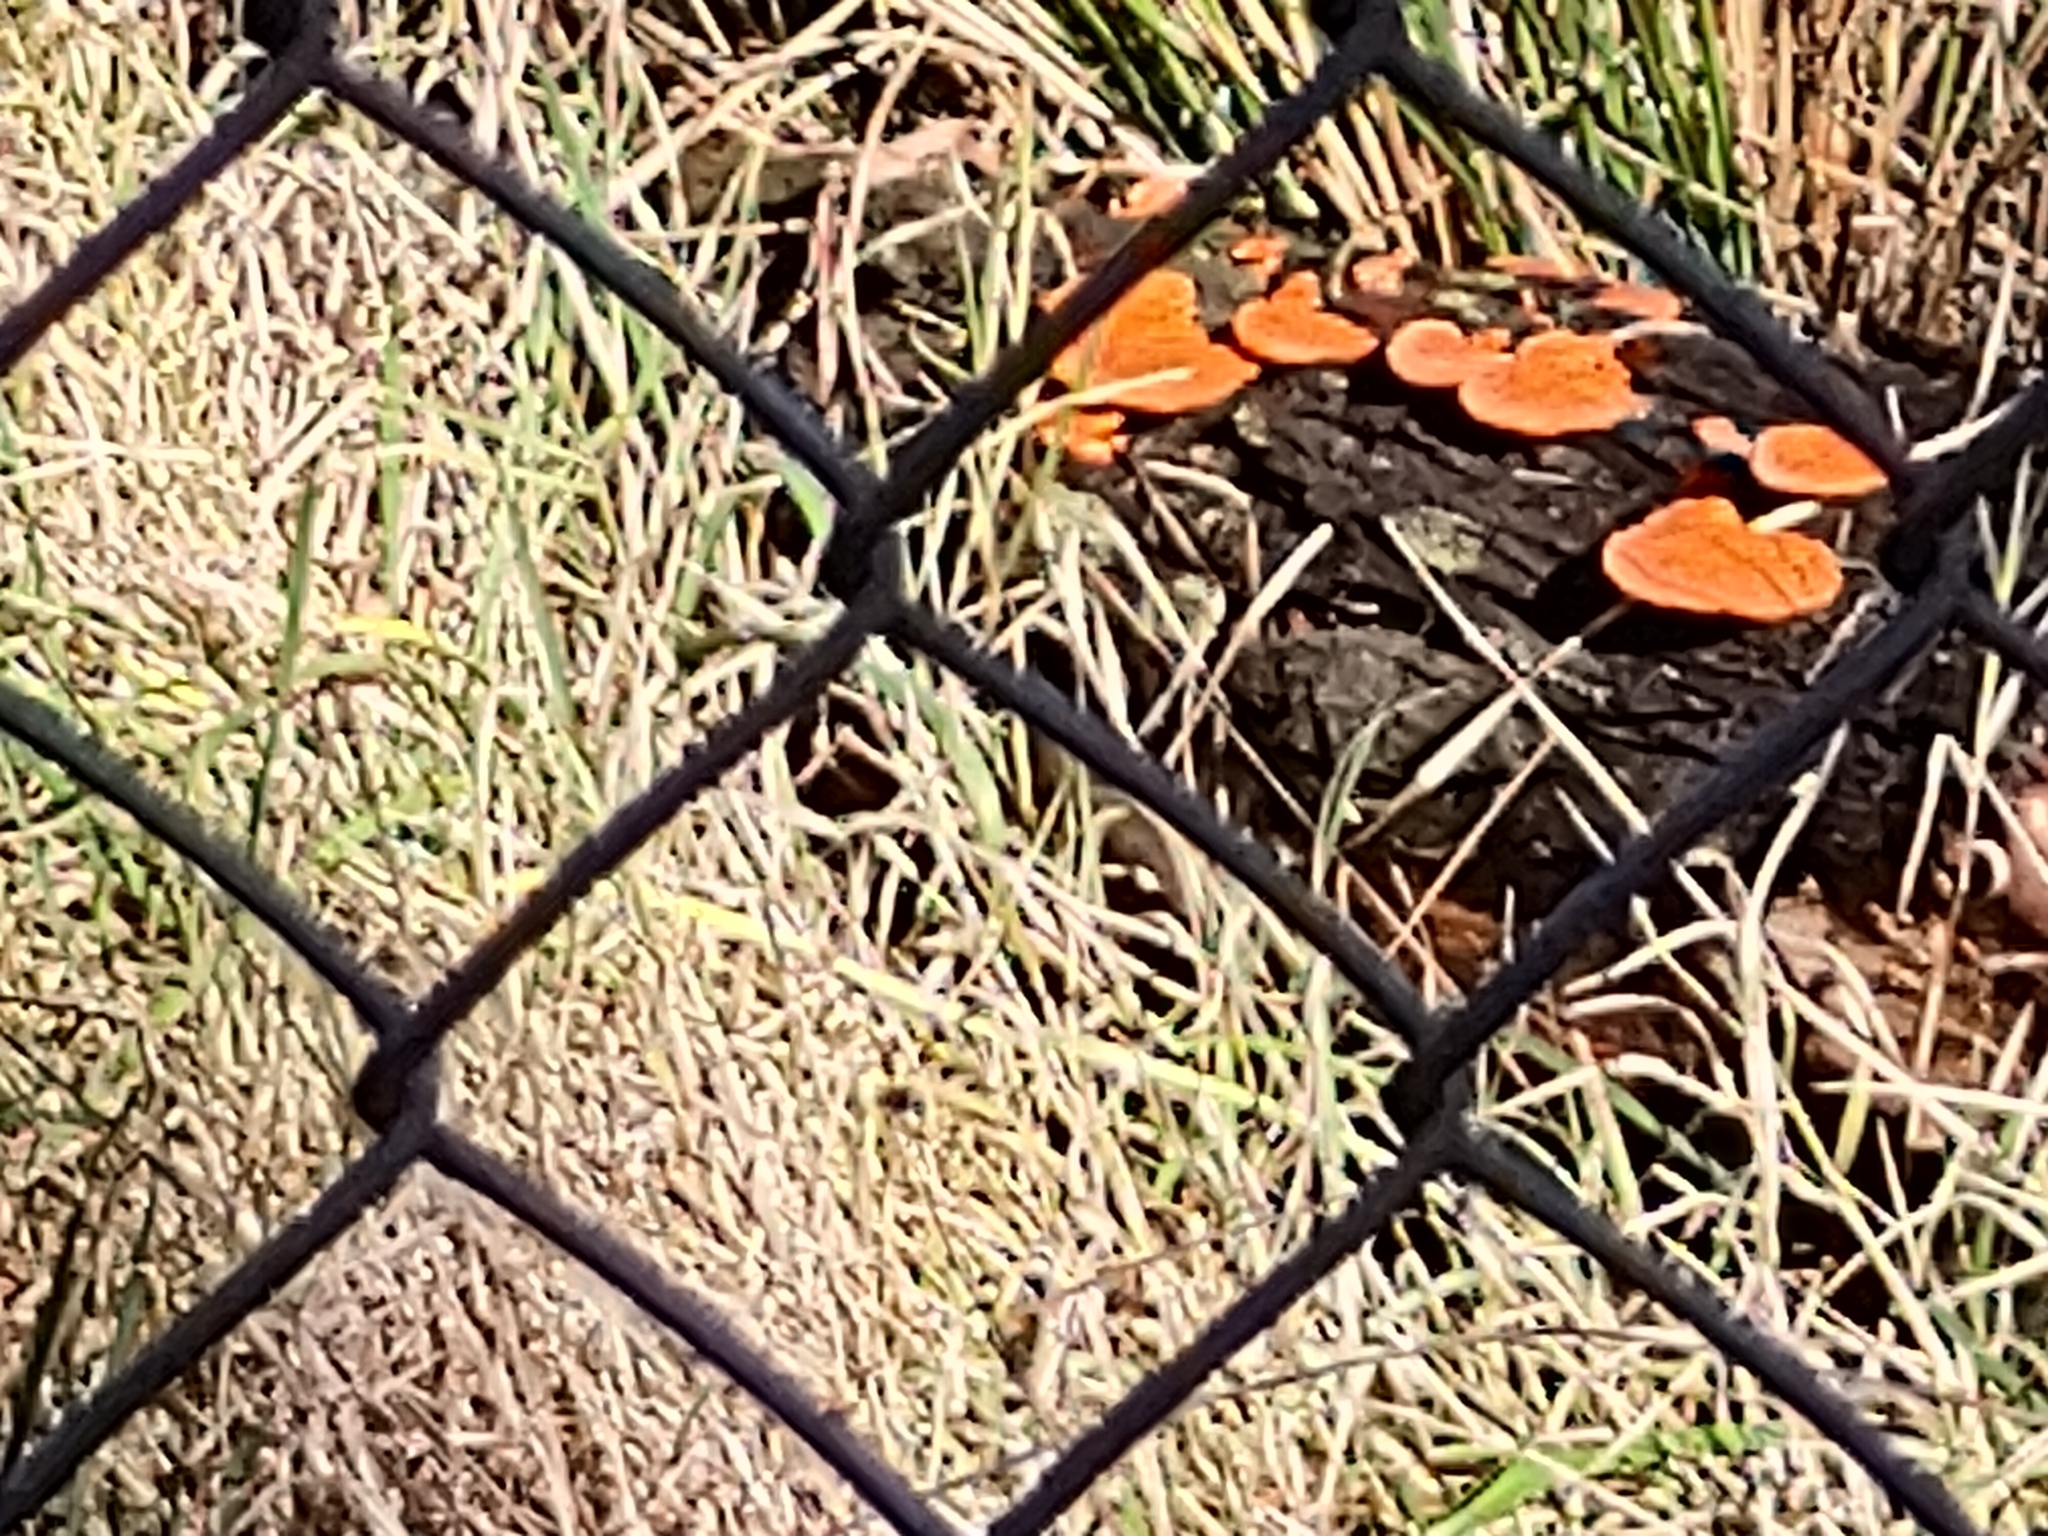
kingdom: Fungi
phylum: Basidiomycota
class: Agaricomycetes
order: Polyporales
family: Polyporaceae
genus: Trametes
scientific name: Trametes coccinea
